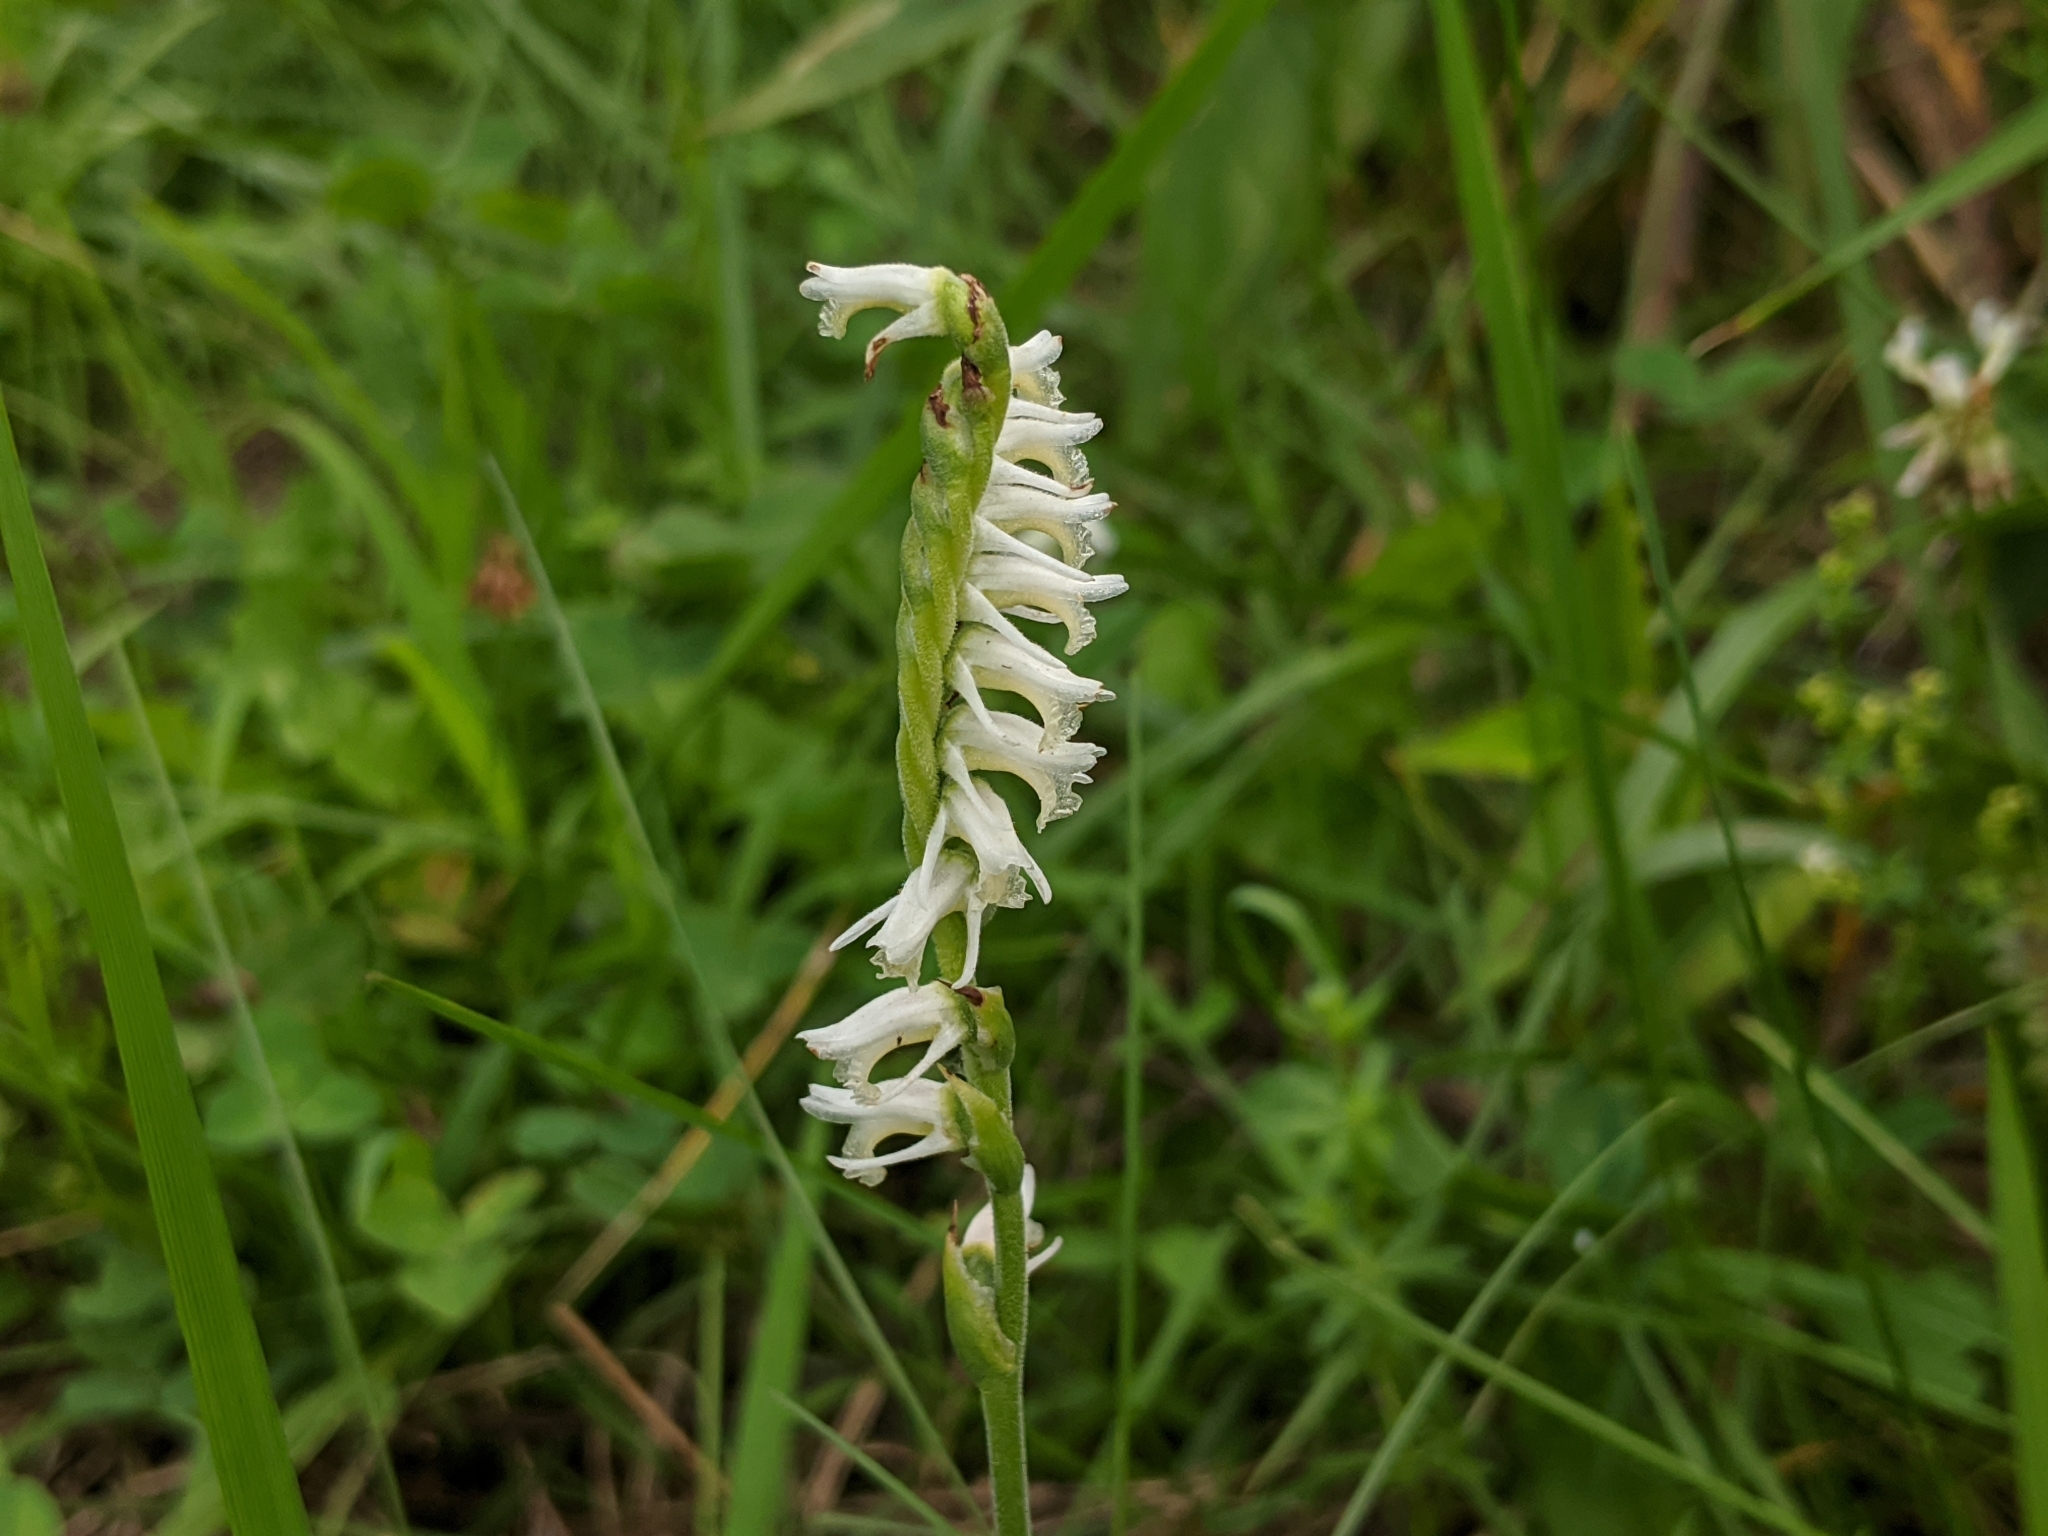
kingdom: Plantae
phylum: Tracheophyta
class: Liliopsida
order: Asparagales
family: Orchidaceae
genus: Spiranthes
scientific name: Spiranthes vernalis
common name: Spring ladies'-tresses
